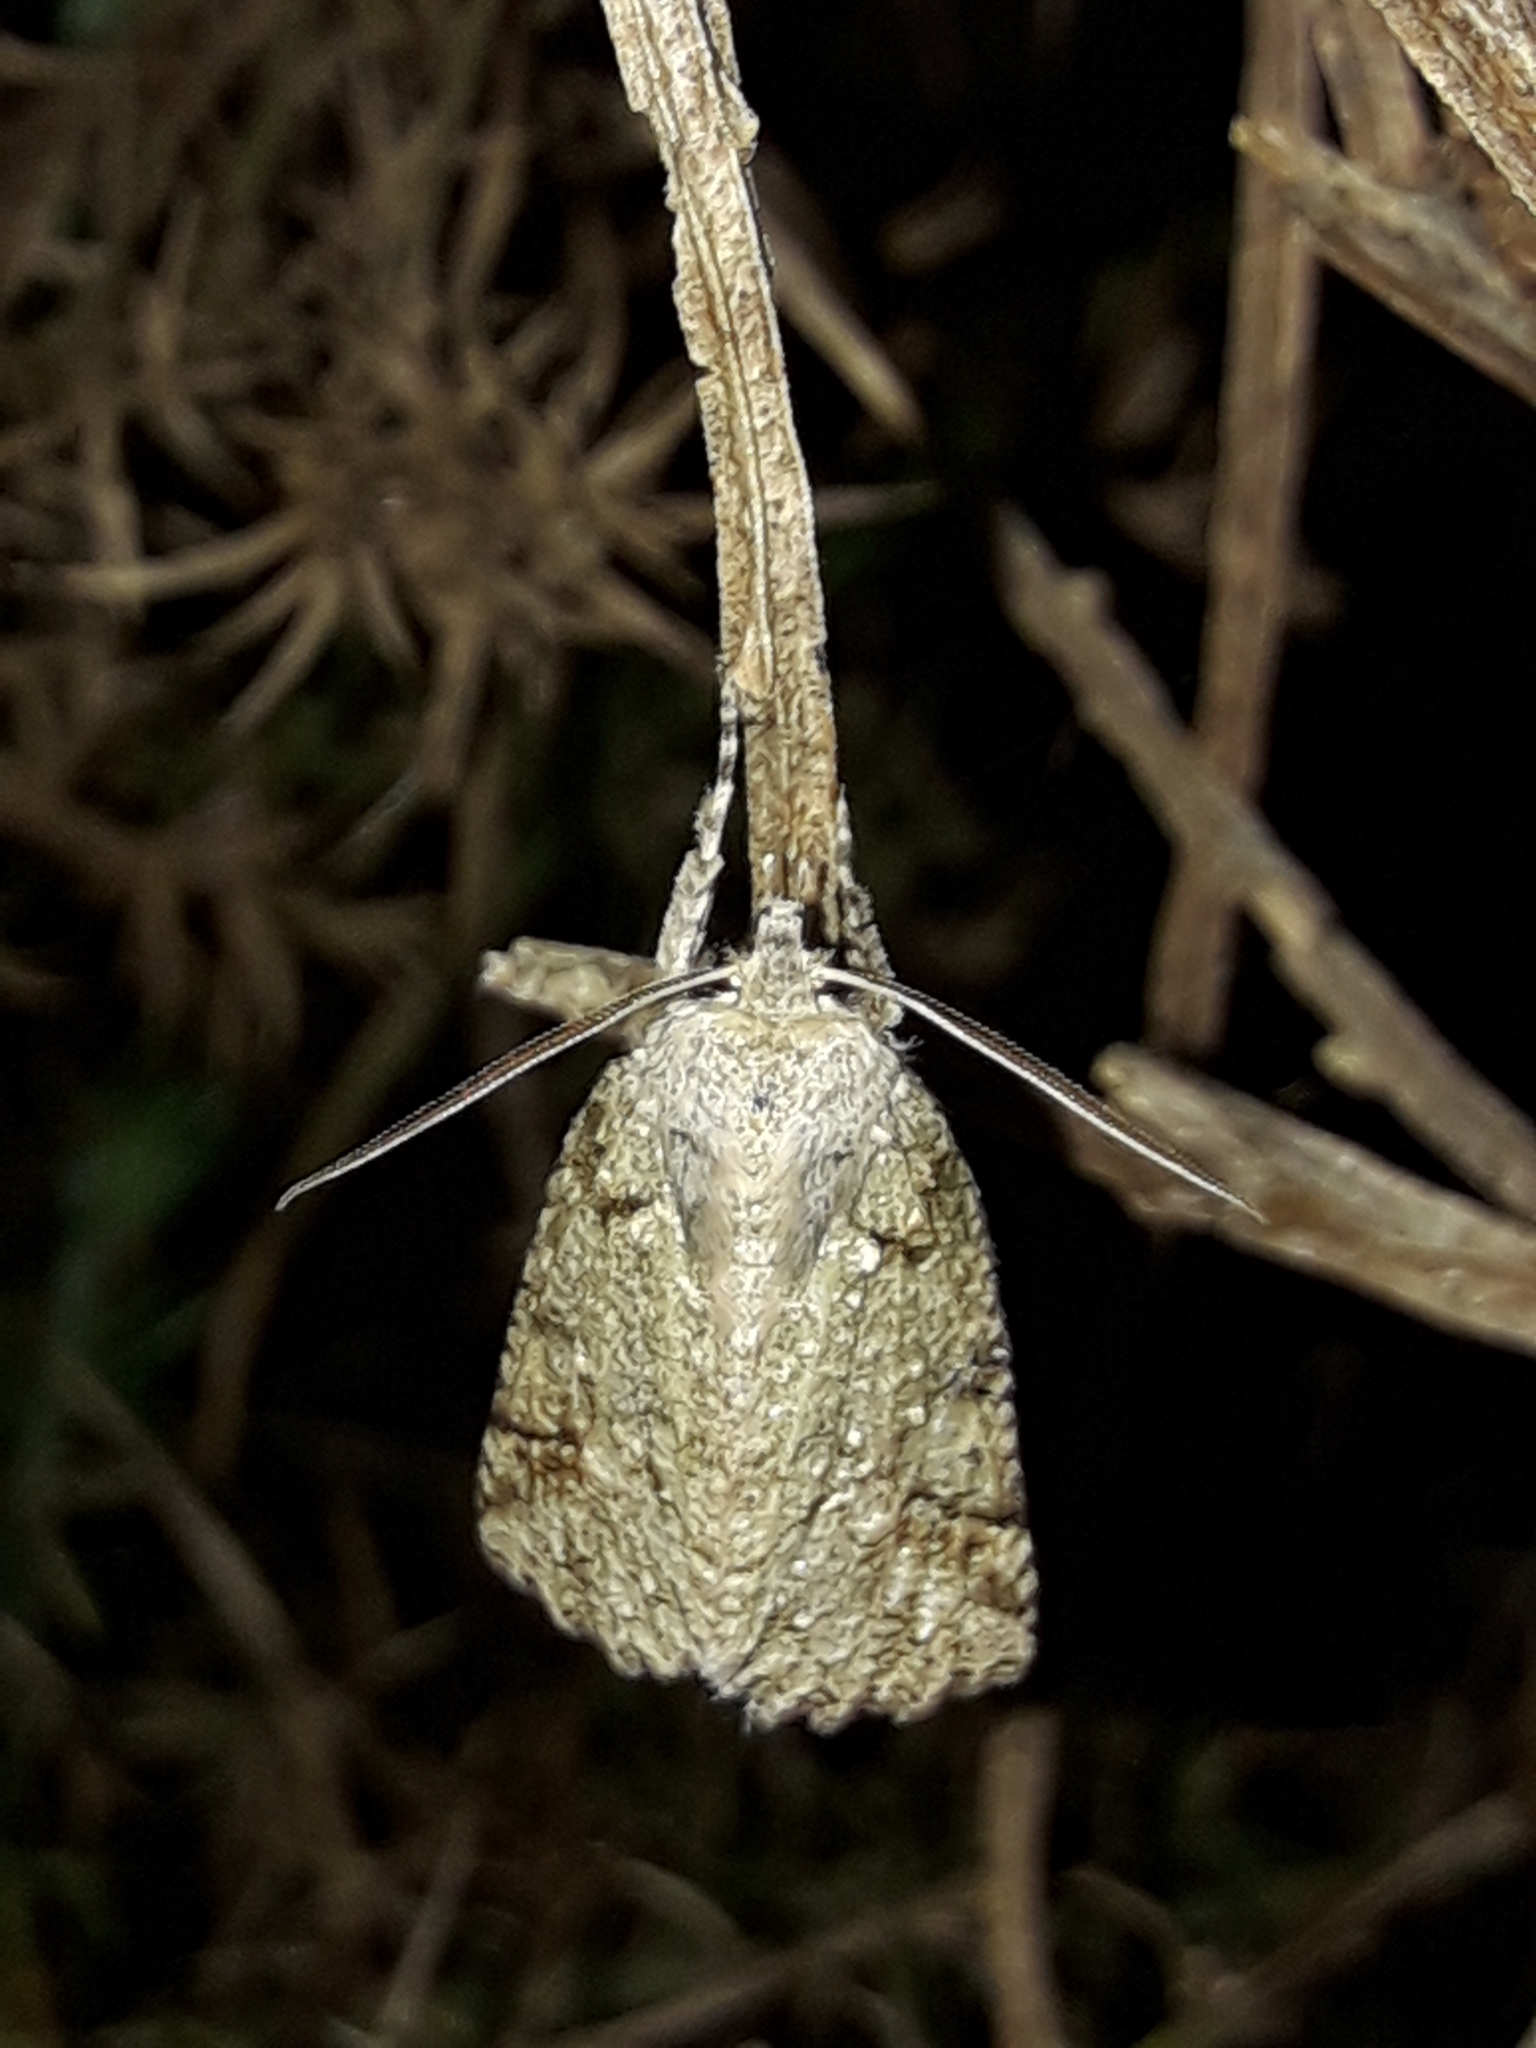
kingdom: Animalia
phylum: Arthropoda
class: Insecta
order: Lepidoptera
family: Geometridae
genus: Declana
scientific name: Declana floccosa
